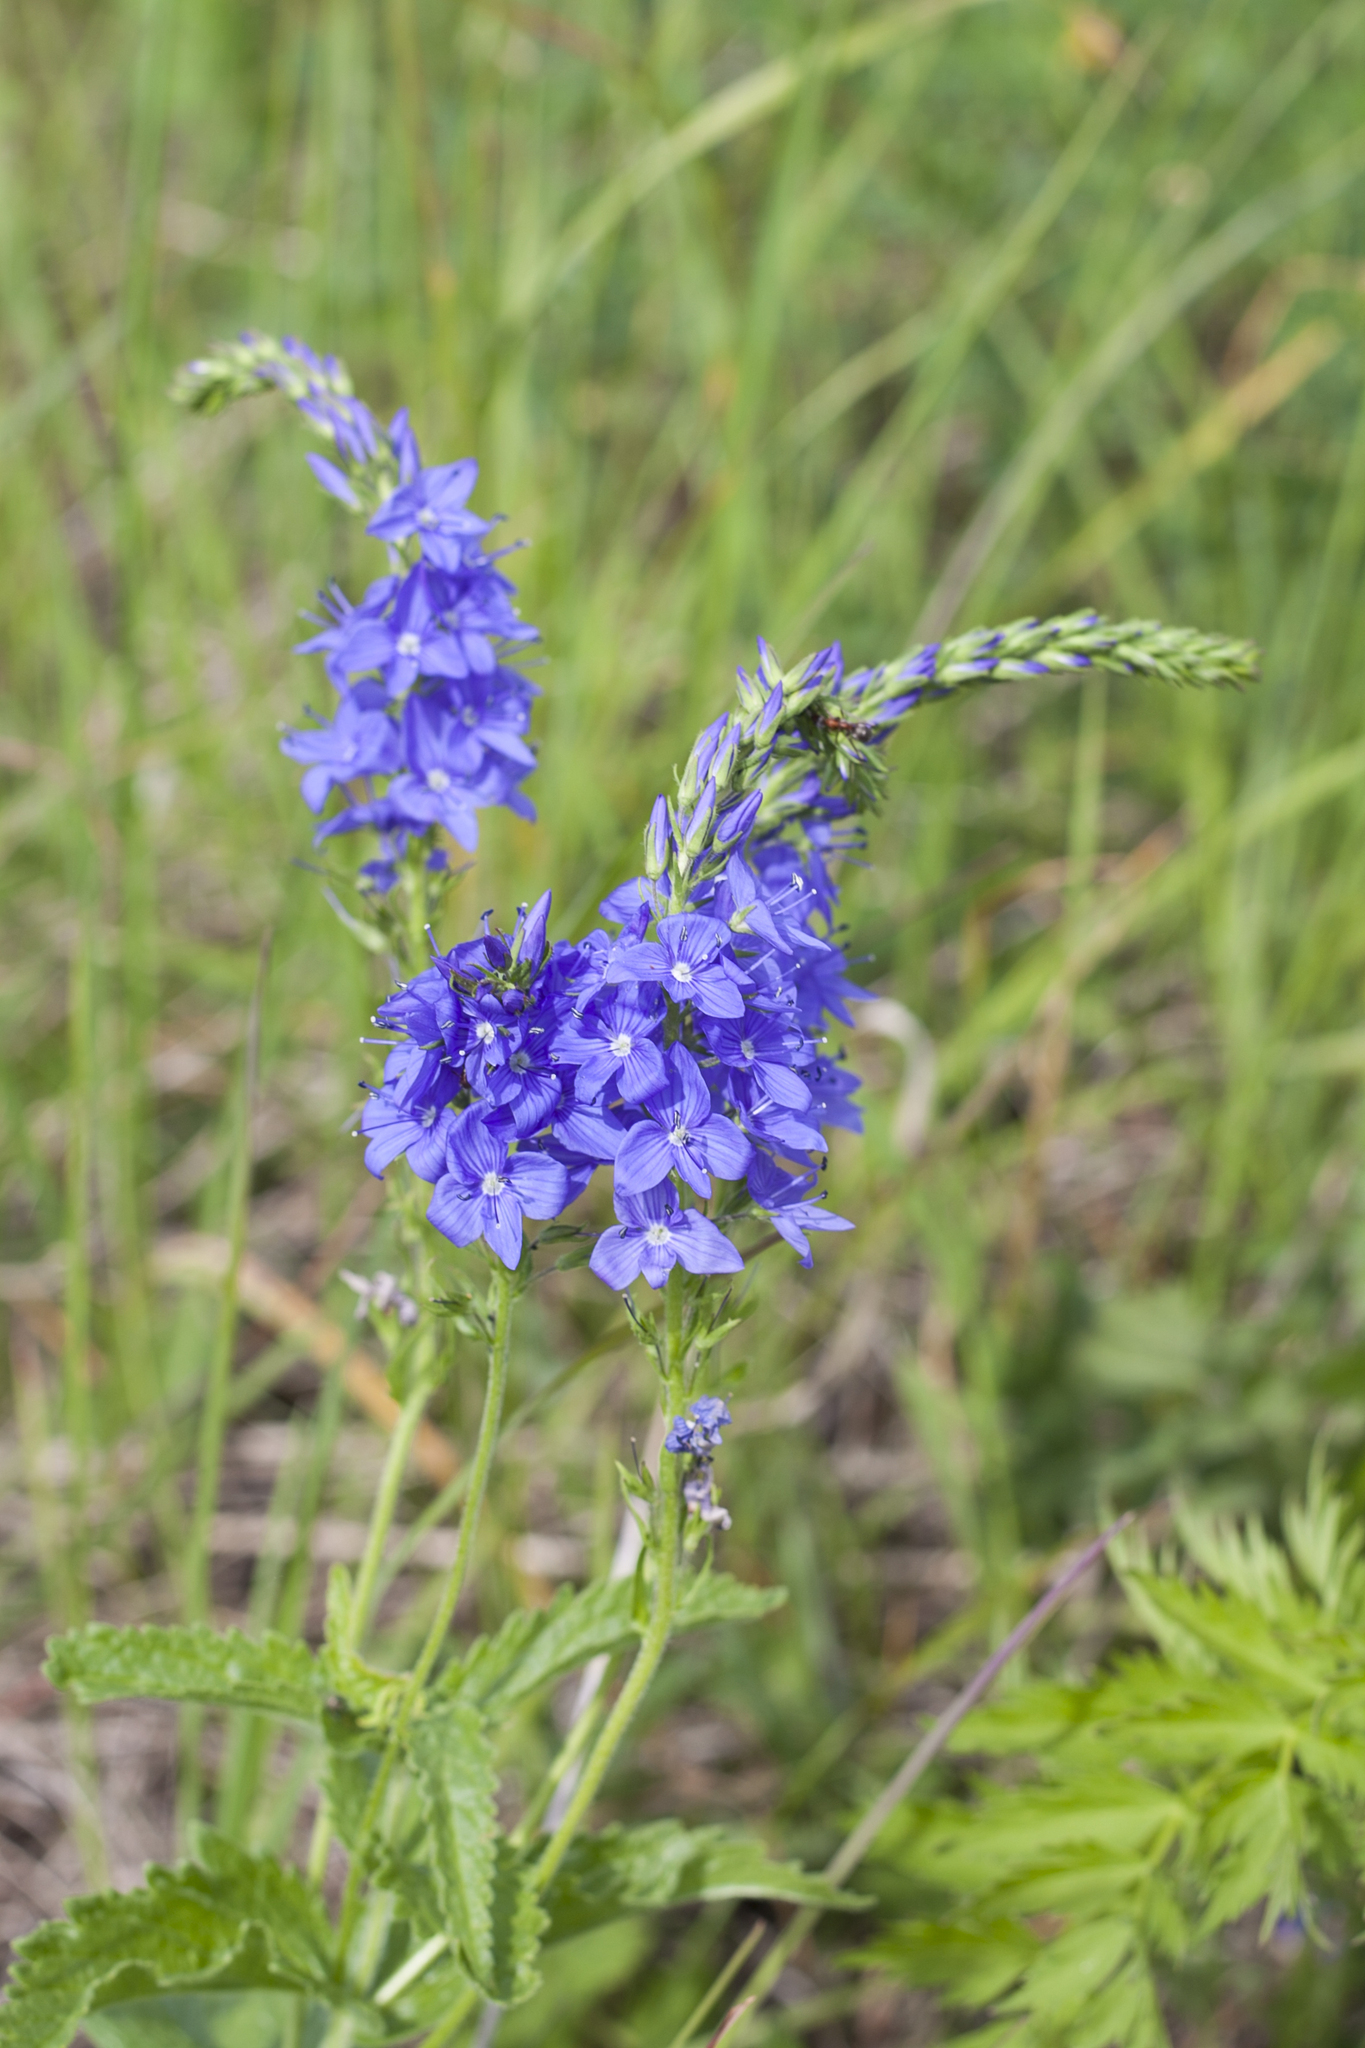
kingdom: Plantae
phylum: Tracheophyta
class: Magnoliopsida
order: Lamiales
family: Plantaginaceae
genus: Veronica
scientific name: Veronica teucrium
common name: Large speedwell
